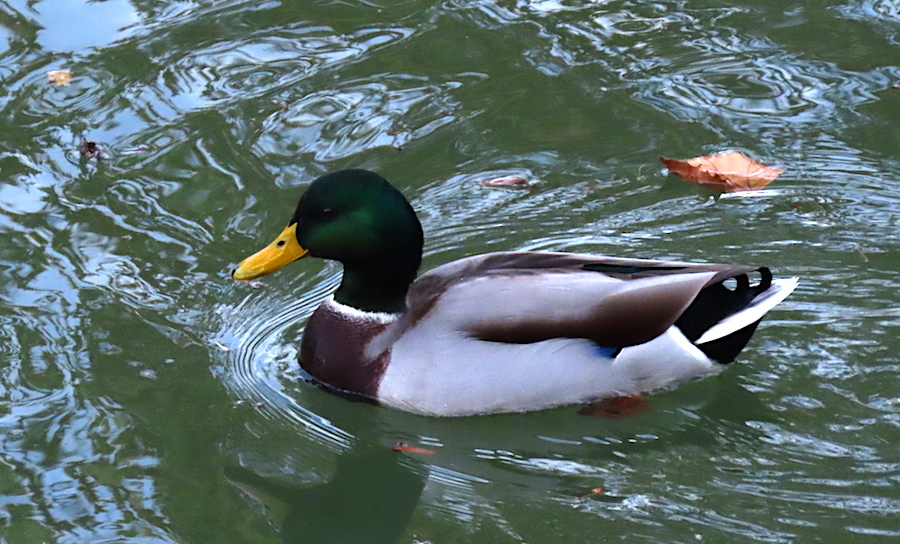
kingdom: Animalia
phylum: Chordata
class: Aves
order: Anseriformes
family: Anatidae
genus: Anas
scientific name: Anas platyrhynchos
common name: Mallard
